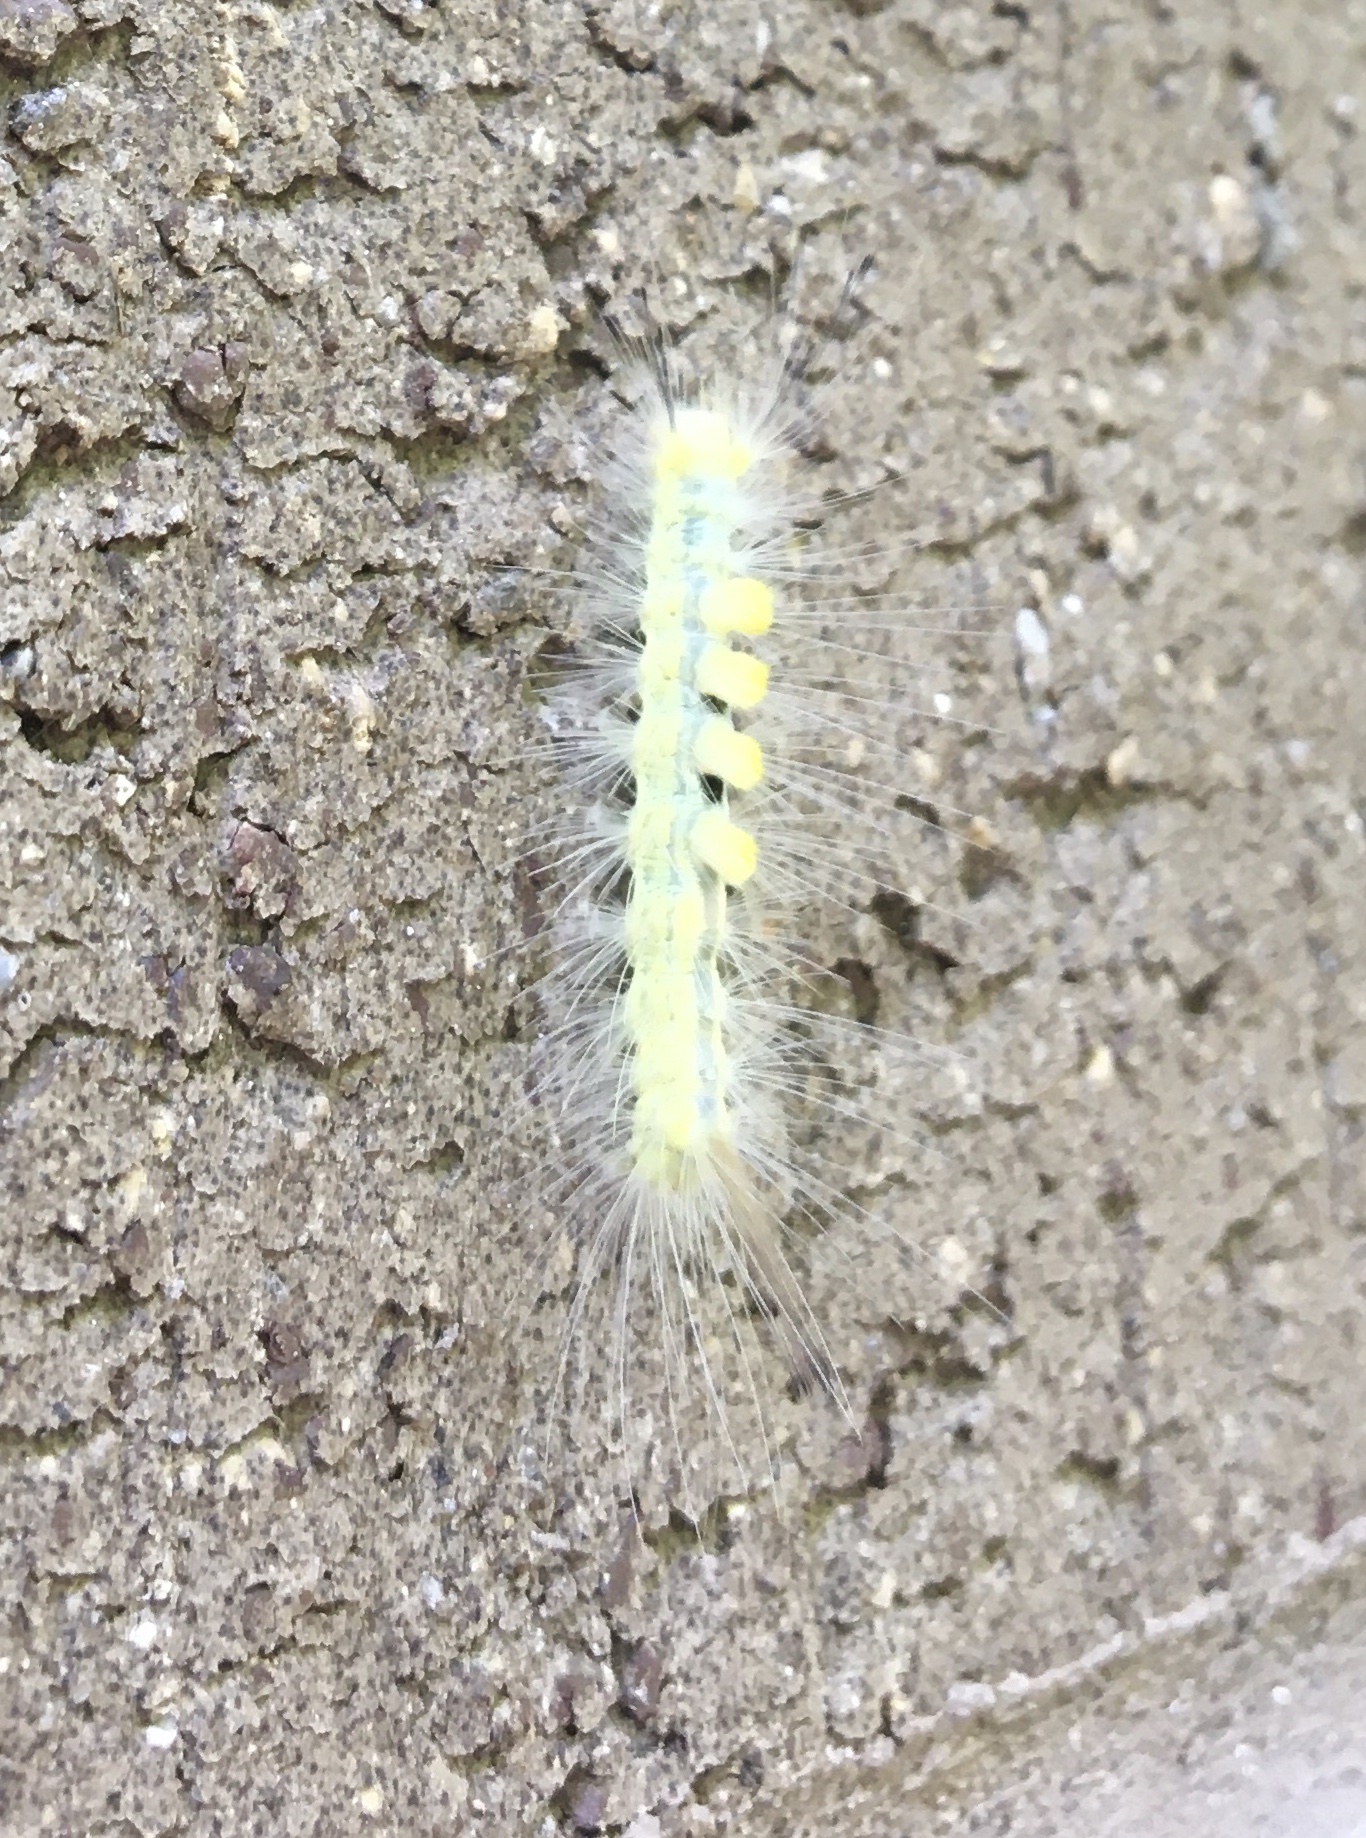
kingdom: Animalia
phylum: Arthropoda
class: Insecta
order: Lepidoptera
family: Erebidae
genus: Orgyia
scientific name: Orgyia definita
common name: Definite tussock moth
